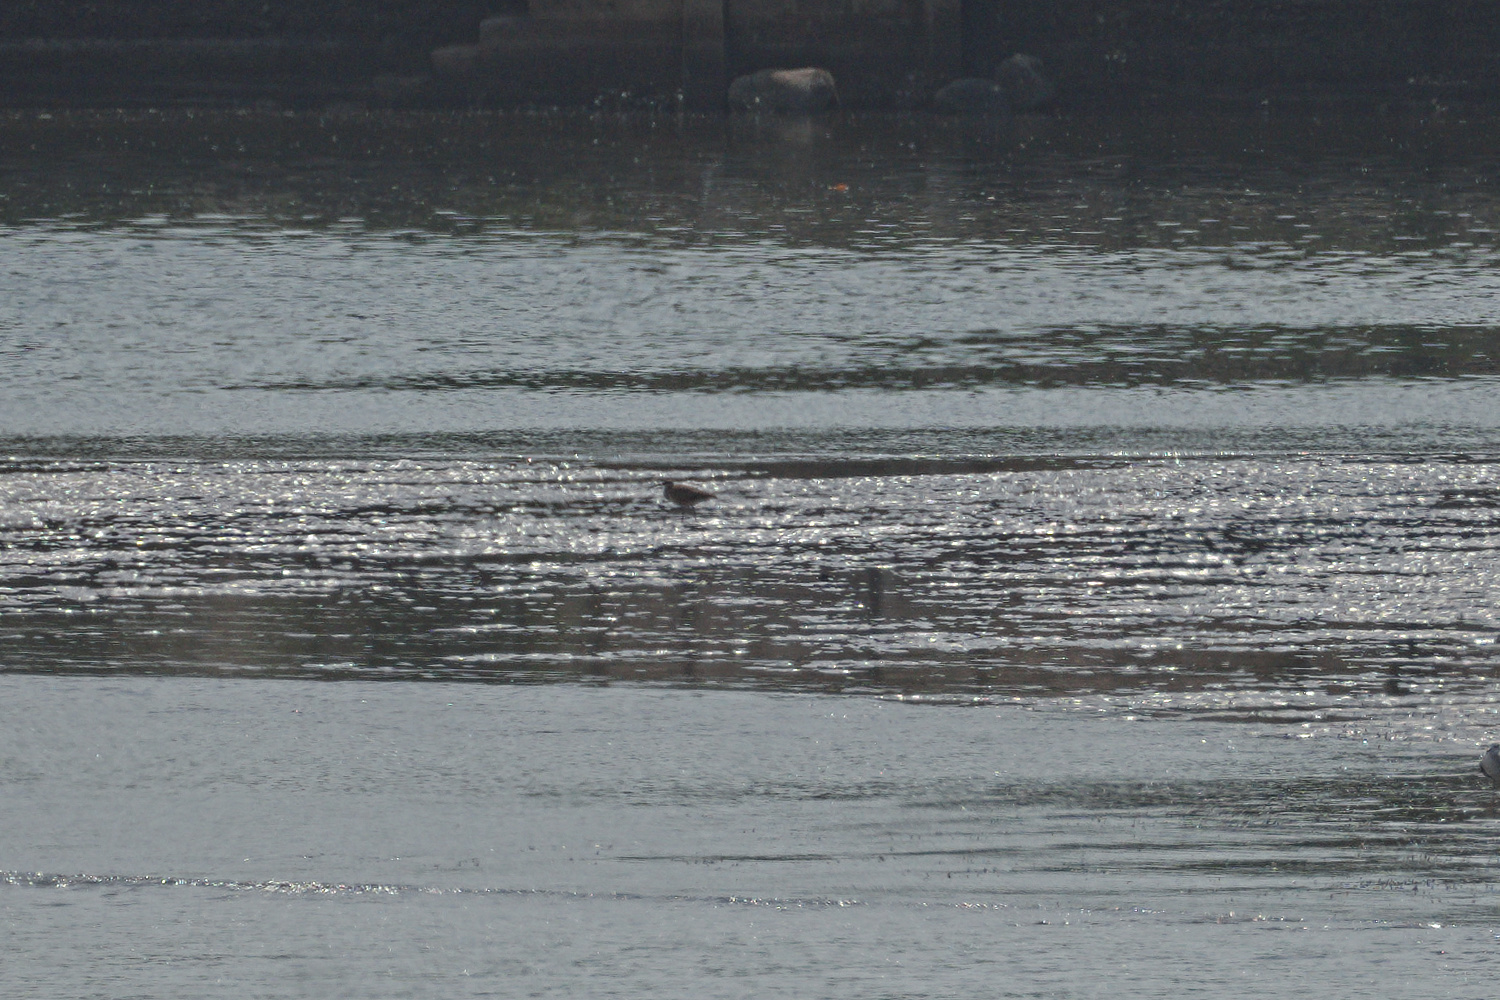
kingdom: Animalia
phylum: Chordata
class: Aves
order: Charadriiformes
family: Scolopacidae
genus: Numenius
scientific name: Numenius phaeopus
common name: Whimbrel
